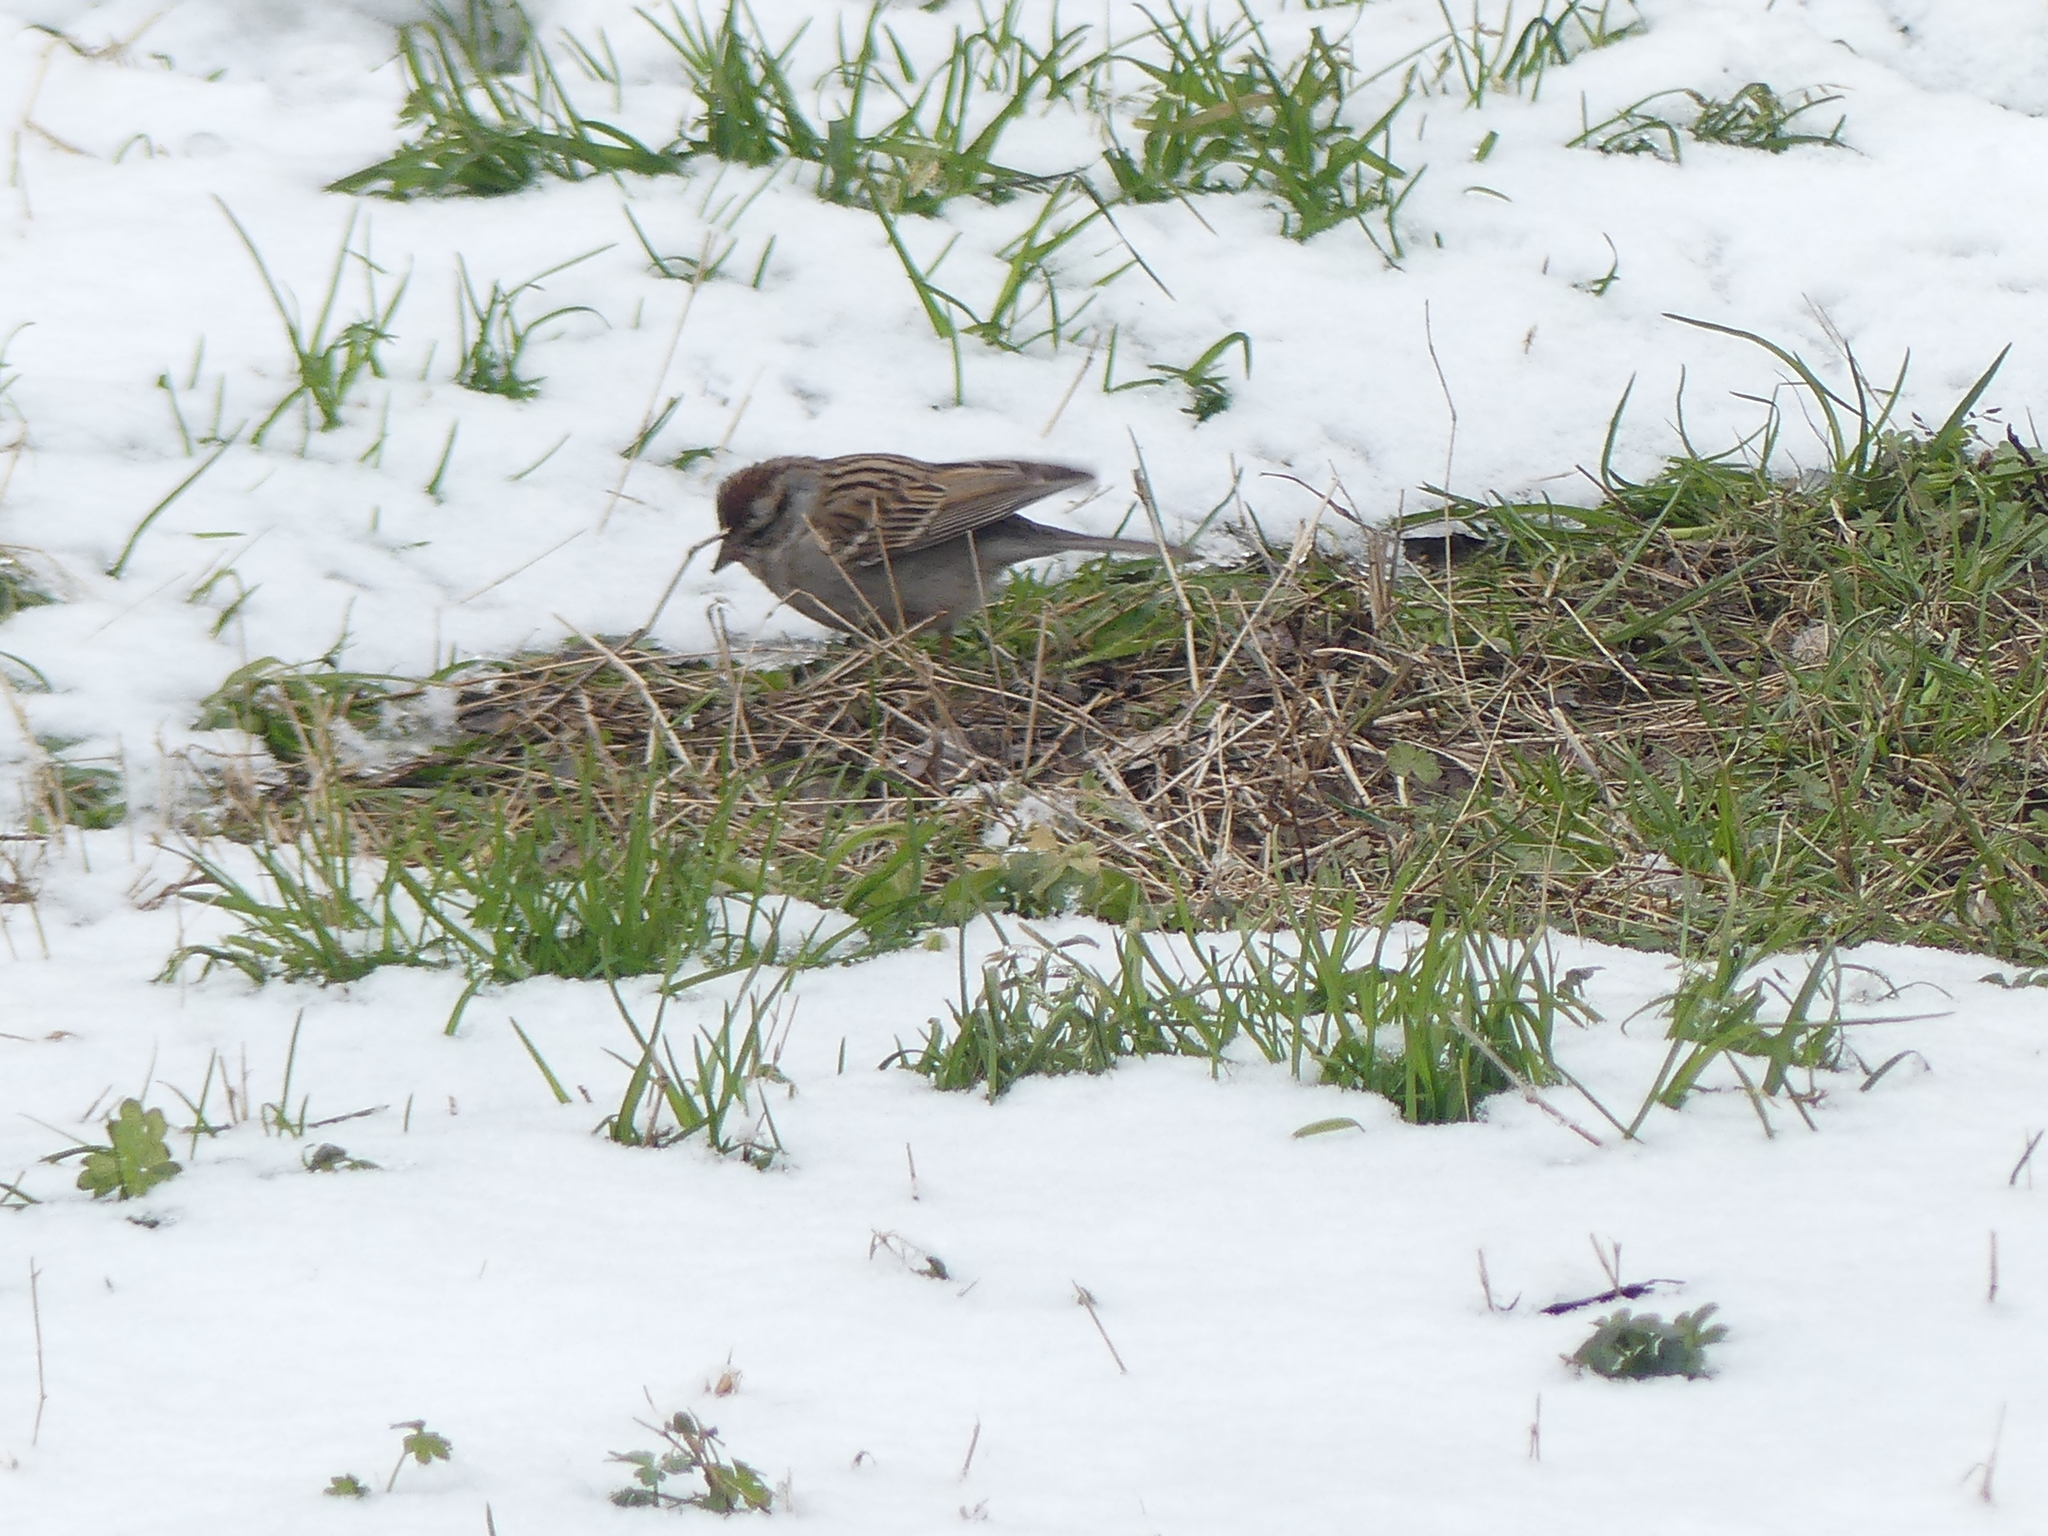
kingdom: Animalia
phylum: Chordata
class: Aves
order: Passeriformes
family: Passerellidae
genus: Spizella
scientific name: Spizella passerina
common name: Chipping sparrow
